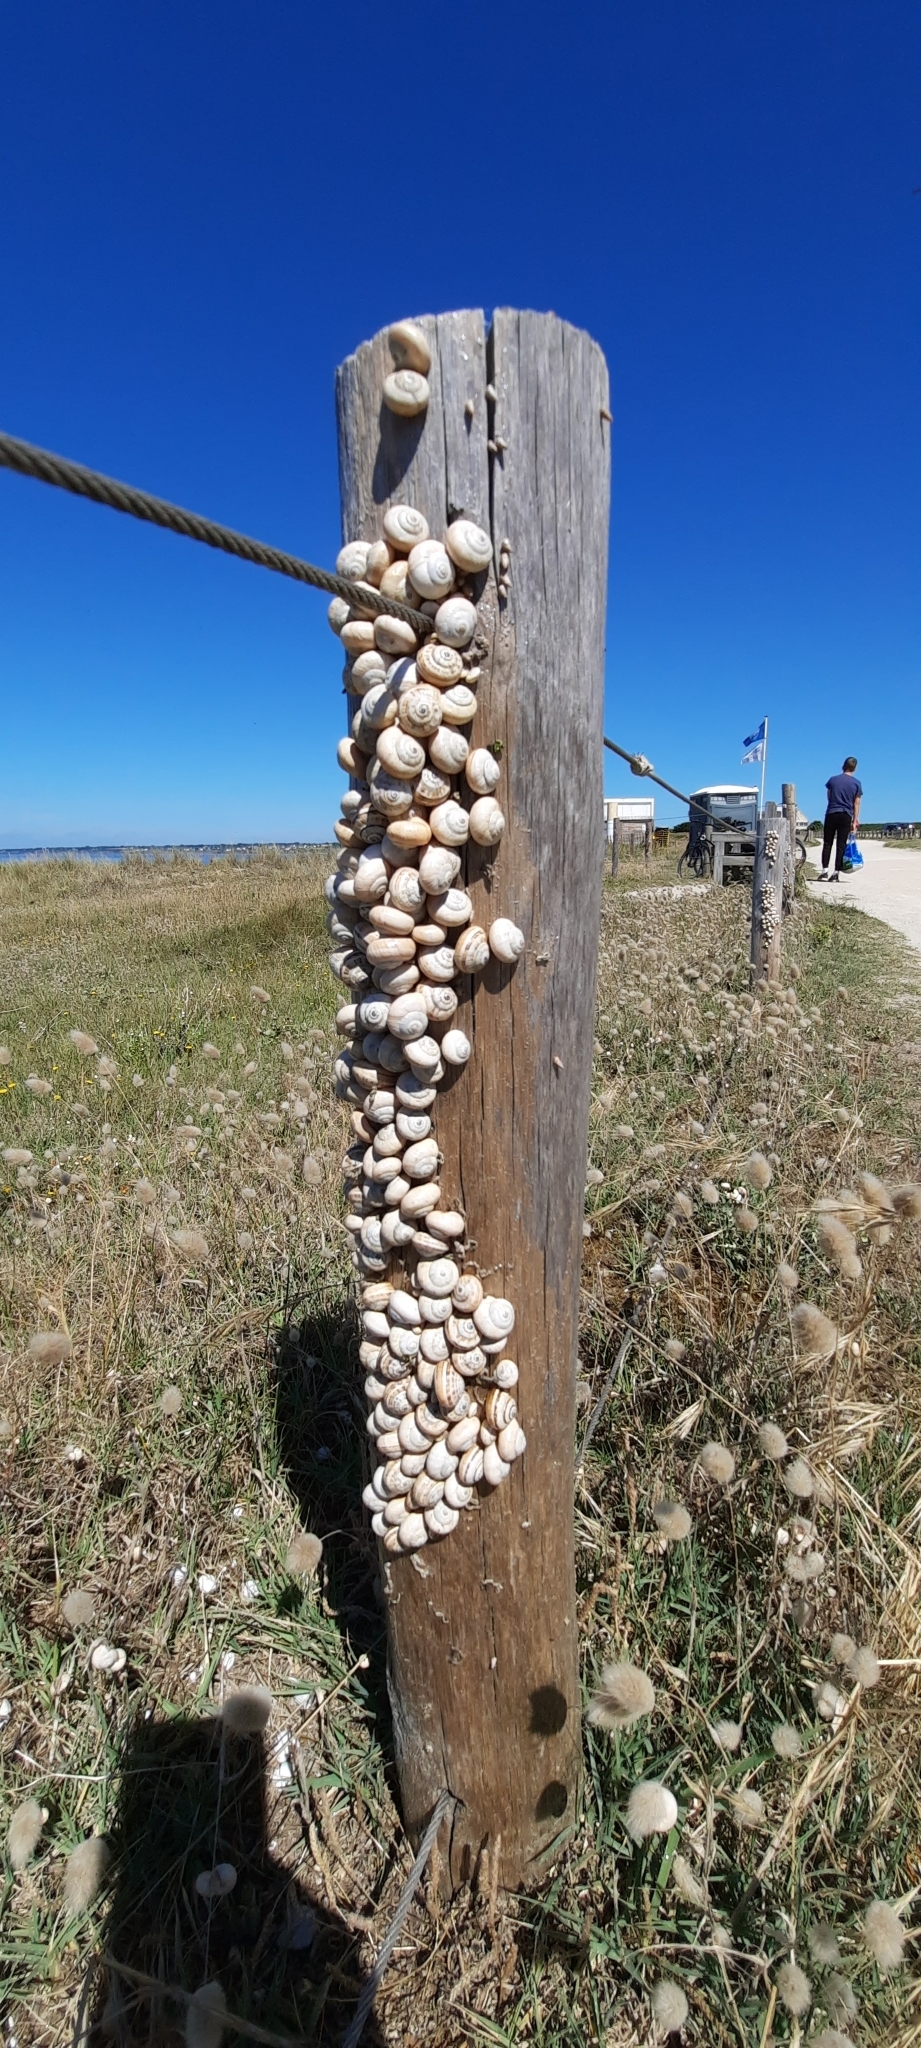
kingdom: Animalia
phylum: Mollusca
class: Gastropoda
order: Stylommatophora
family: Helicidae
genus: Theba
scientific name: Theba pisana
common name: White snail
